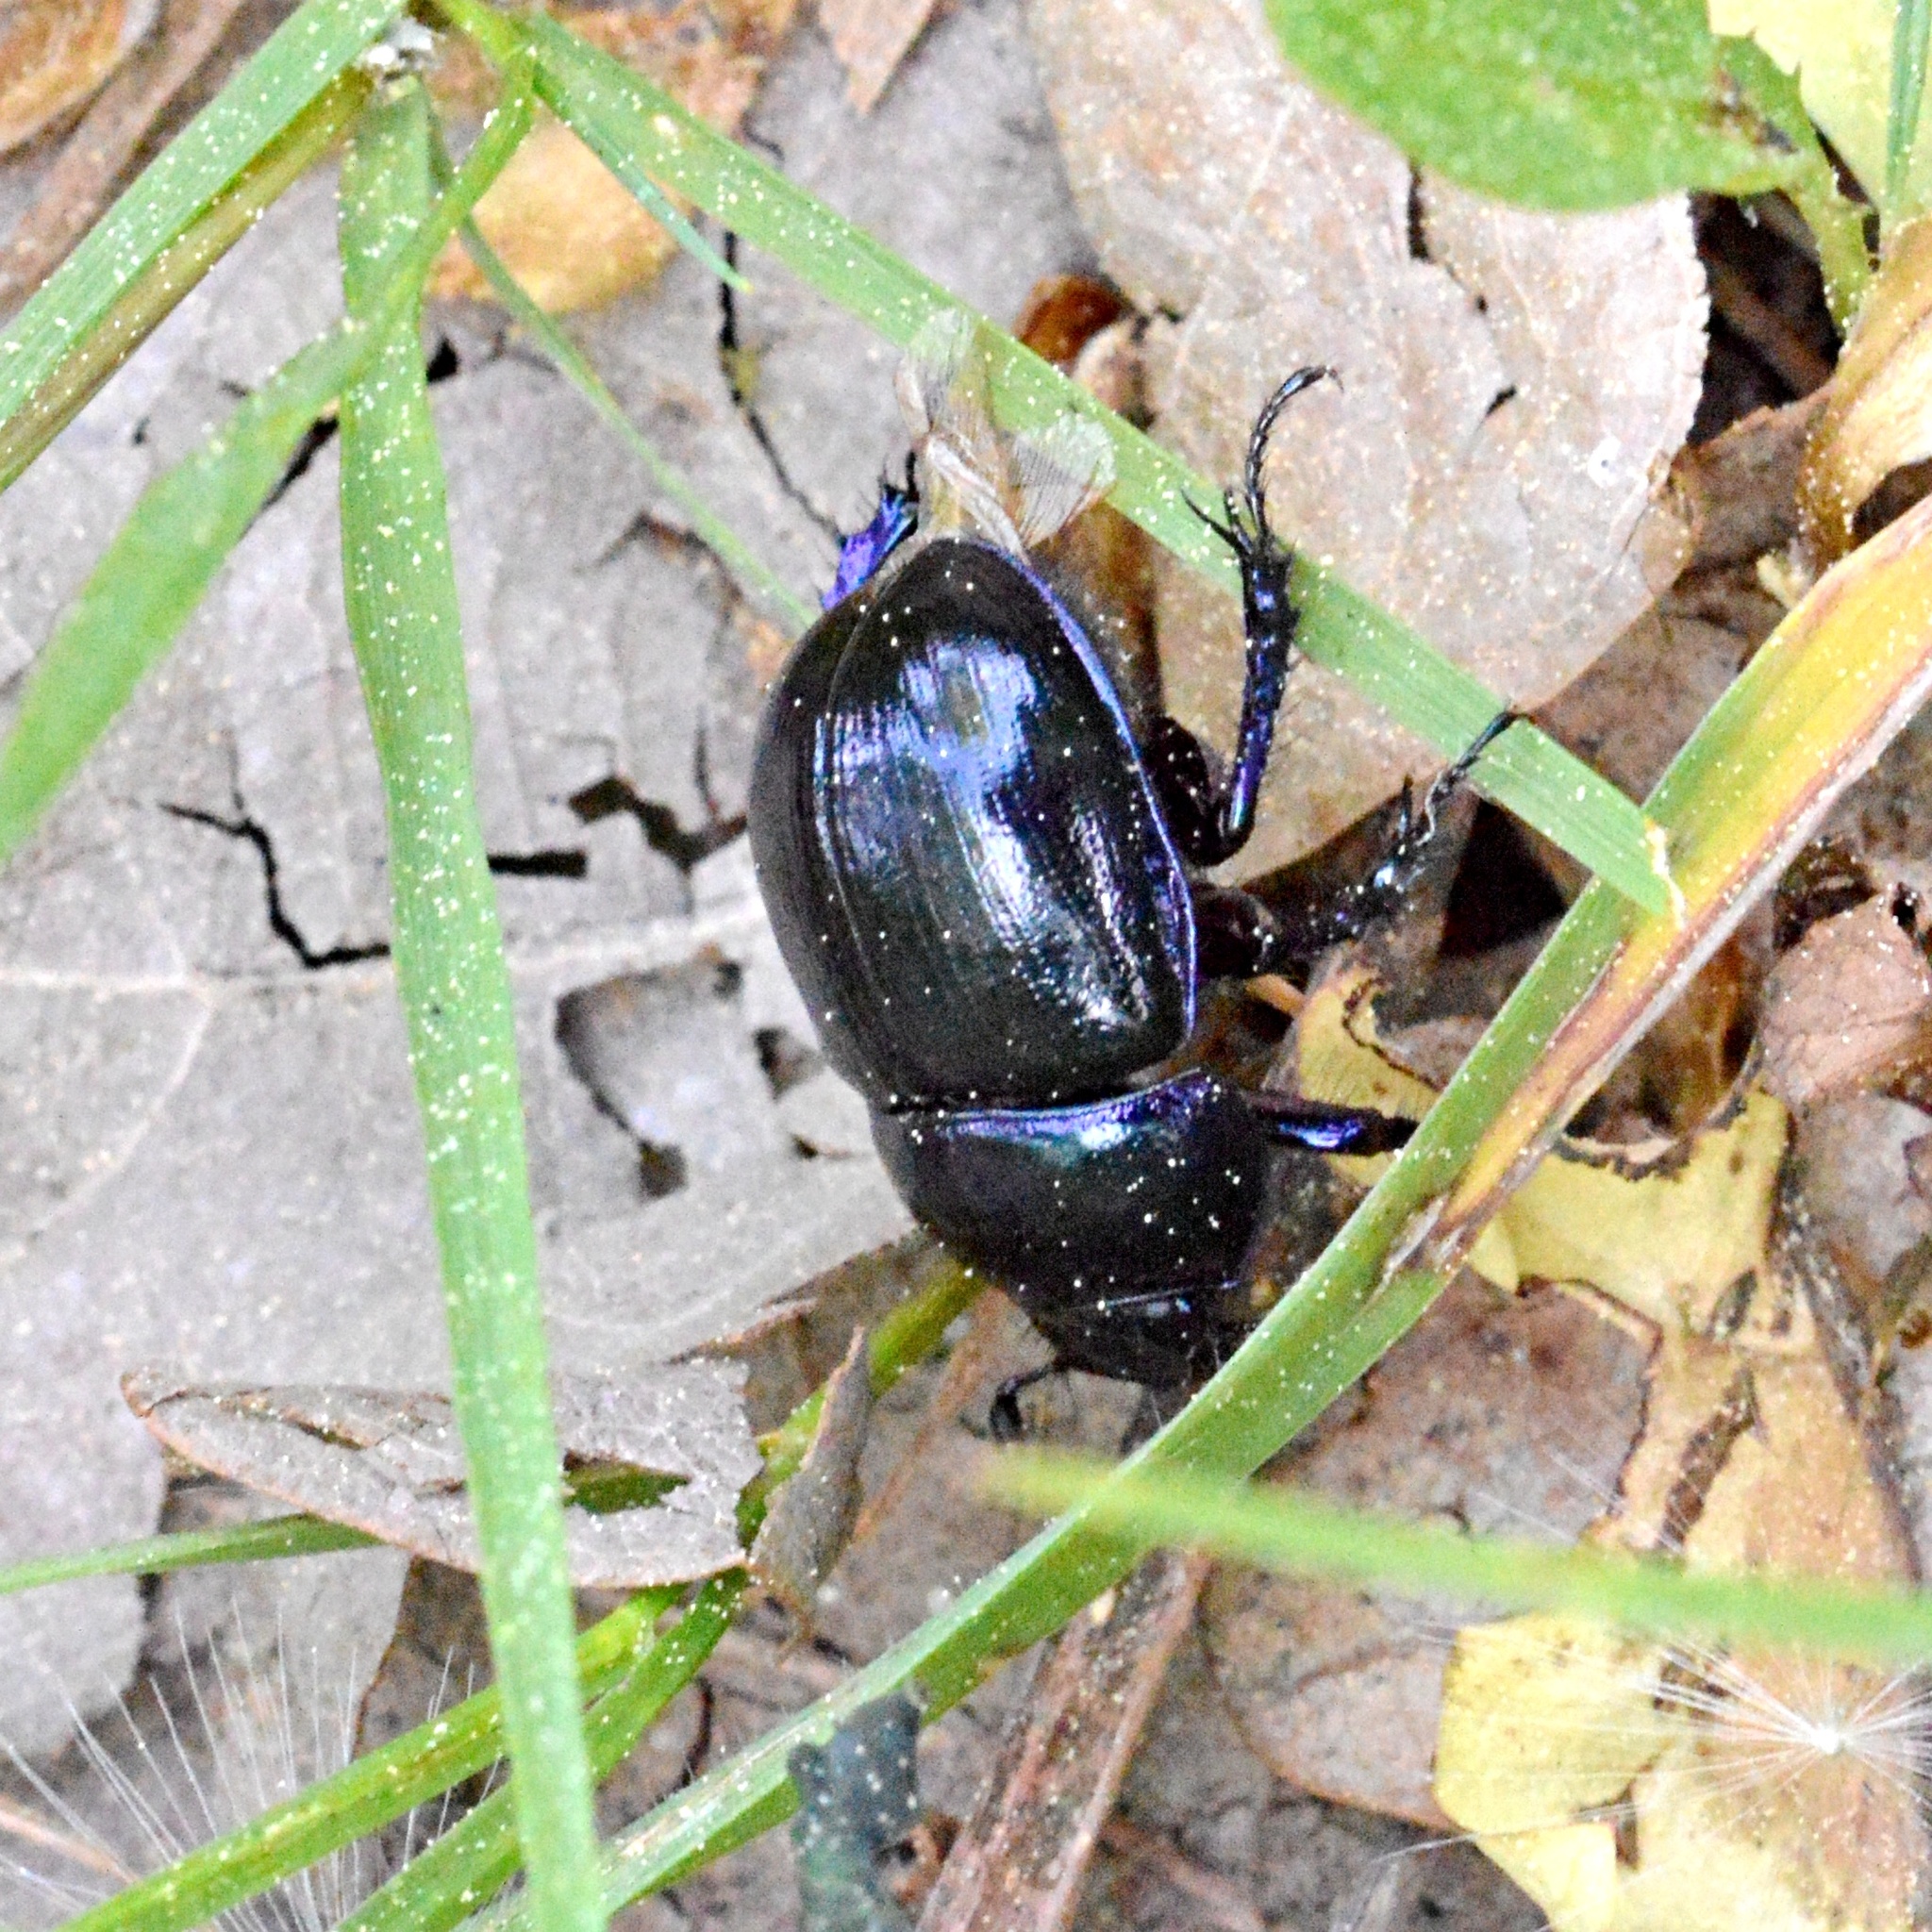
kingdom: Animalia
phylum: Arthropoda
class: Insecta
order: Coleoptera
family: Geotrupidae
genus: Anoplotrupes
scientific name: Anoplotrupes stercorosus
